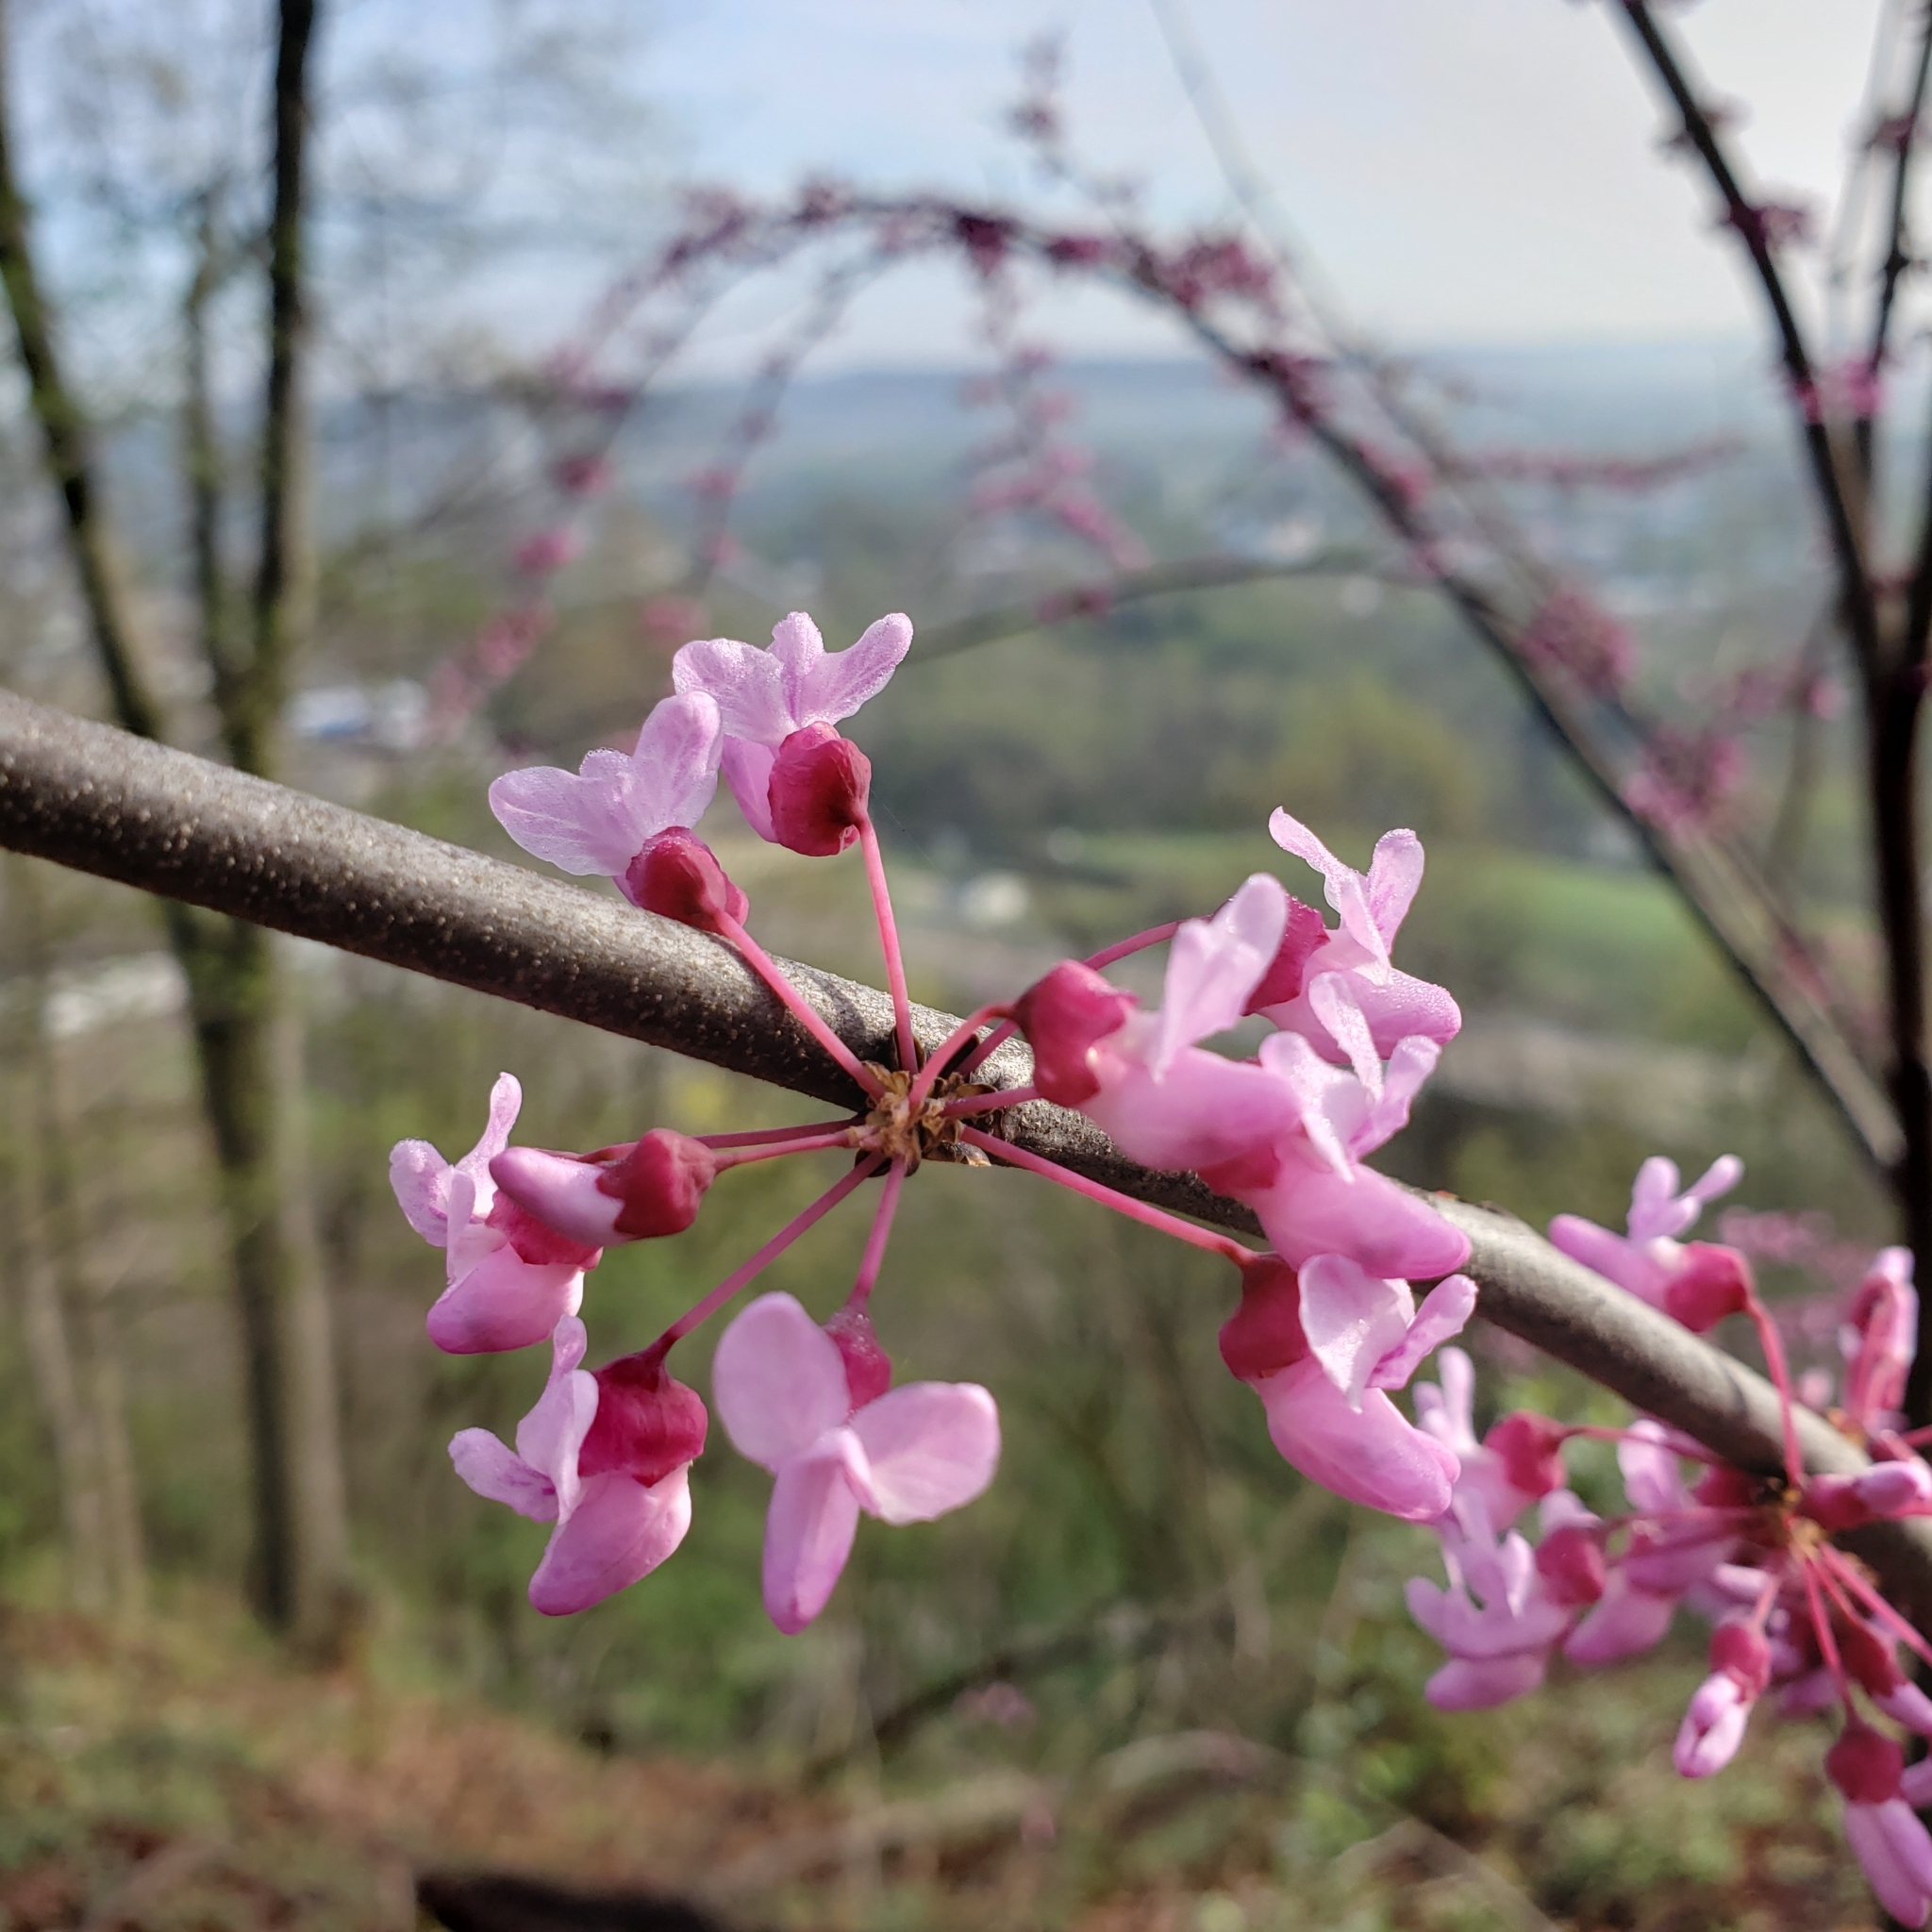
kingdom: Plantae
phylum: Tracheophyta
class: Magnoliopsida
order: Fabales
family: Fabaceae
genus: Cercis
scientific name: Cercis canadensis
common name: Eastern redbud
